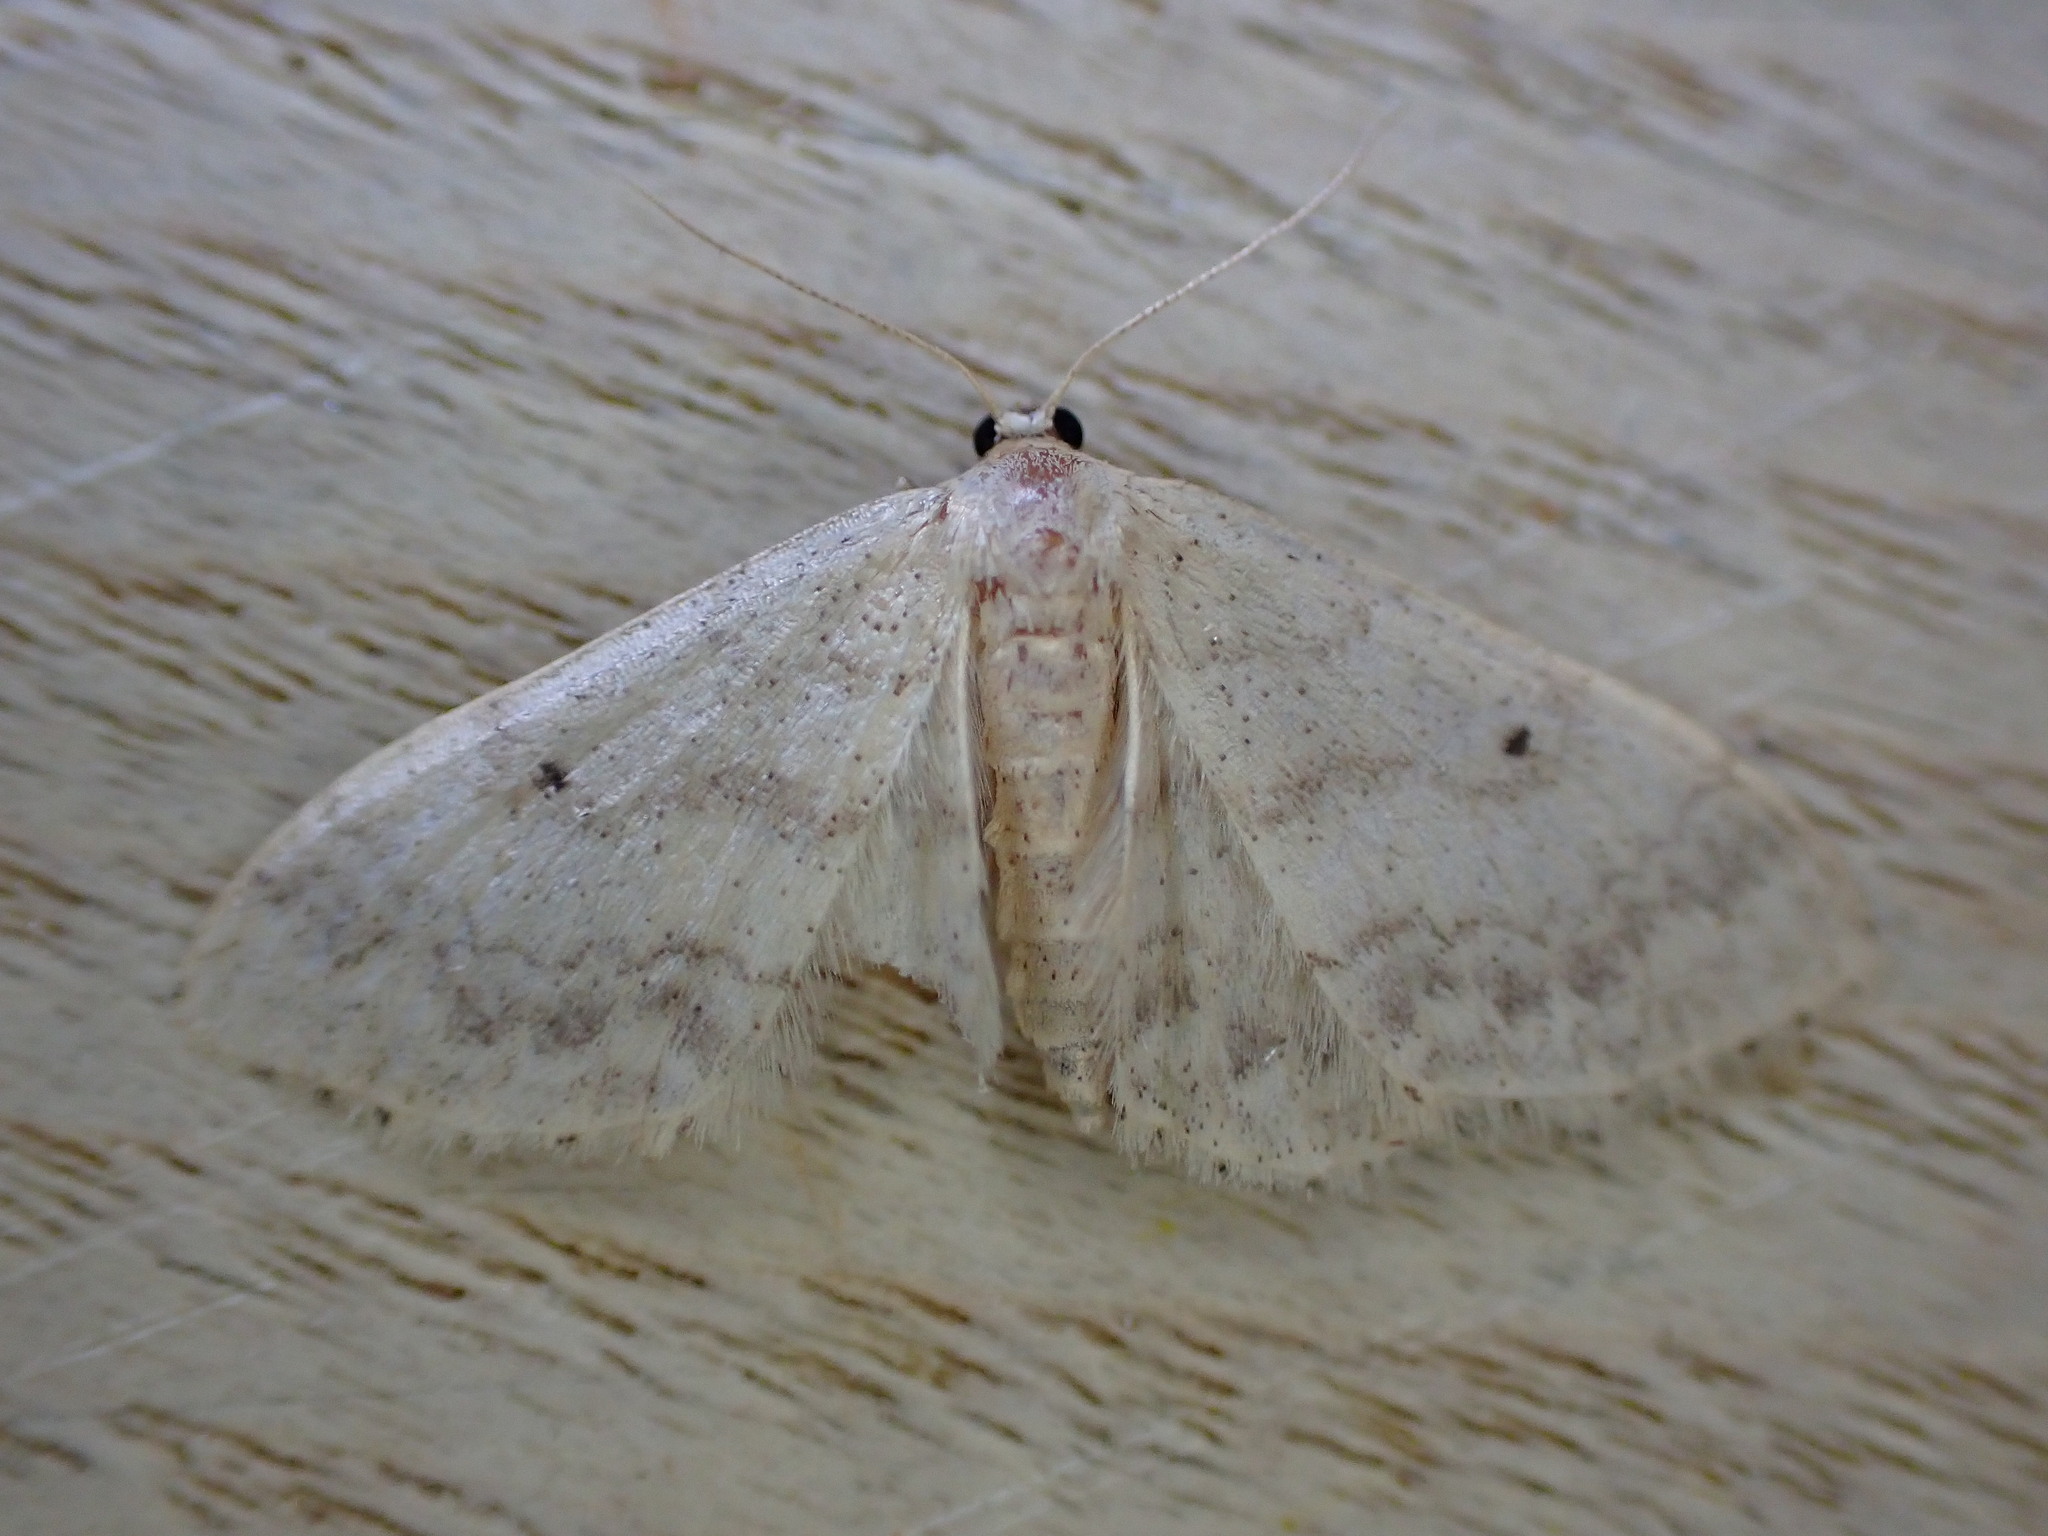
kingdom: Animalia
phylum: Arthropoda
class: Insecta
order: Lepidoptera
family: Geometridae
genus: Idaea
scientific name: Idaea biselata
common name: Small fan-footed wave
